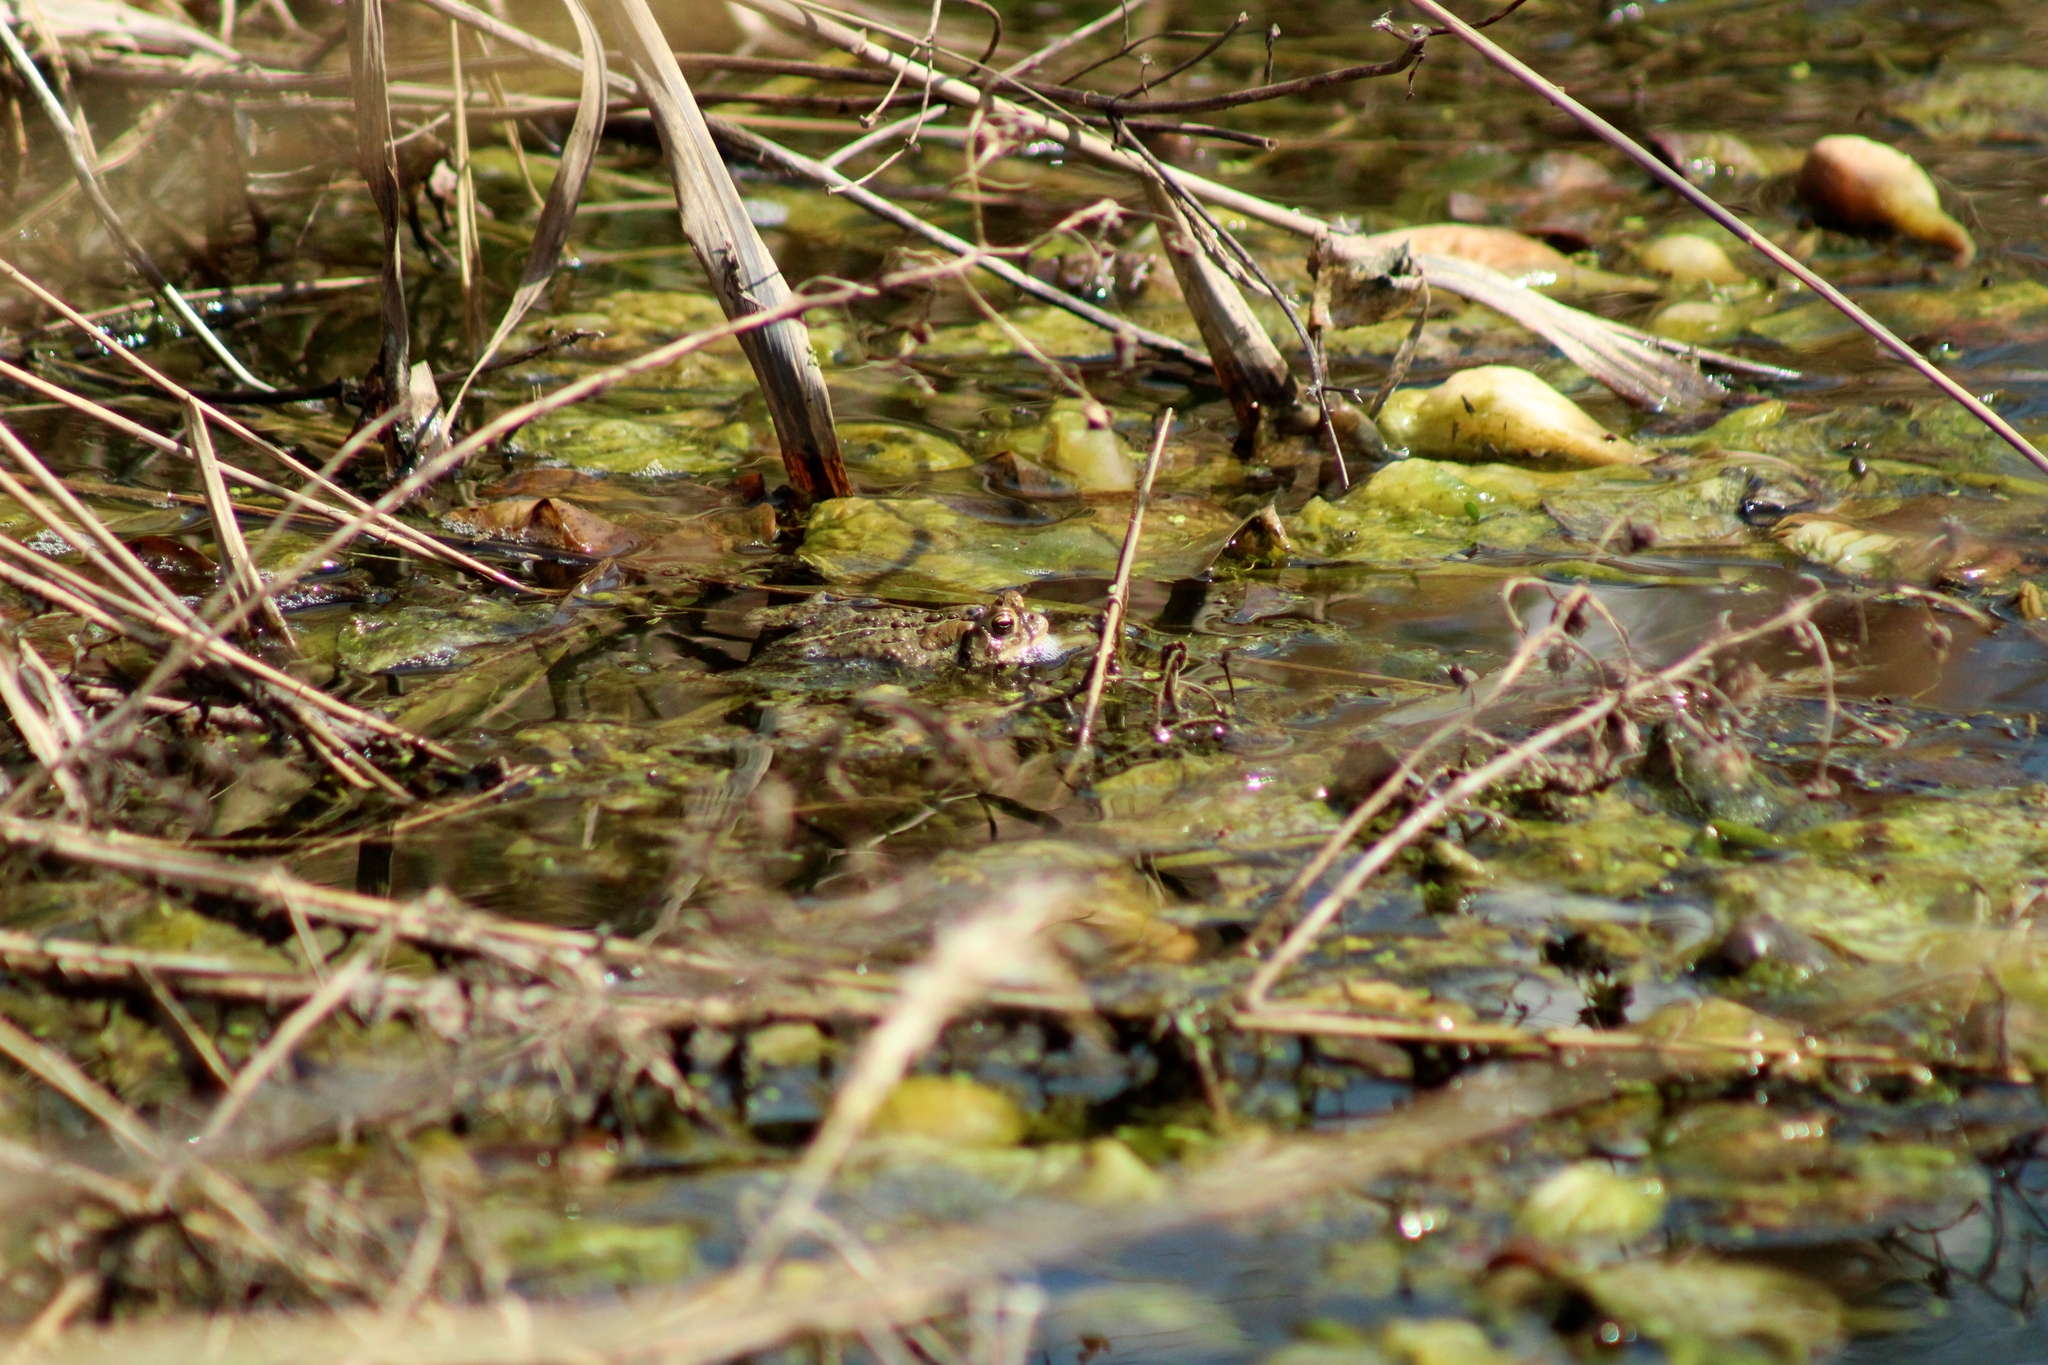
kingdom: Animalia
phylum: Chordata
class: Amphibia
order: Anura
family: Bufonidae
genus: Anaxyrus
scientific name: Anaxyrus americanus
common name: American toad
